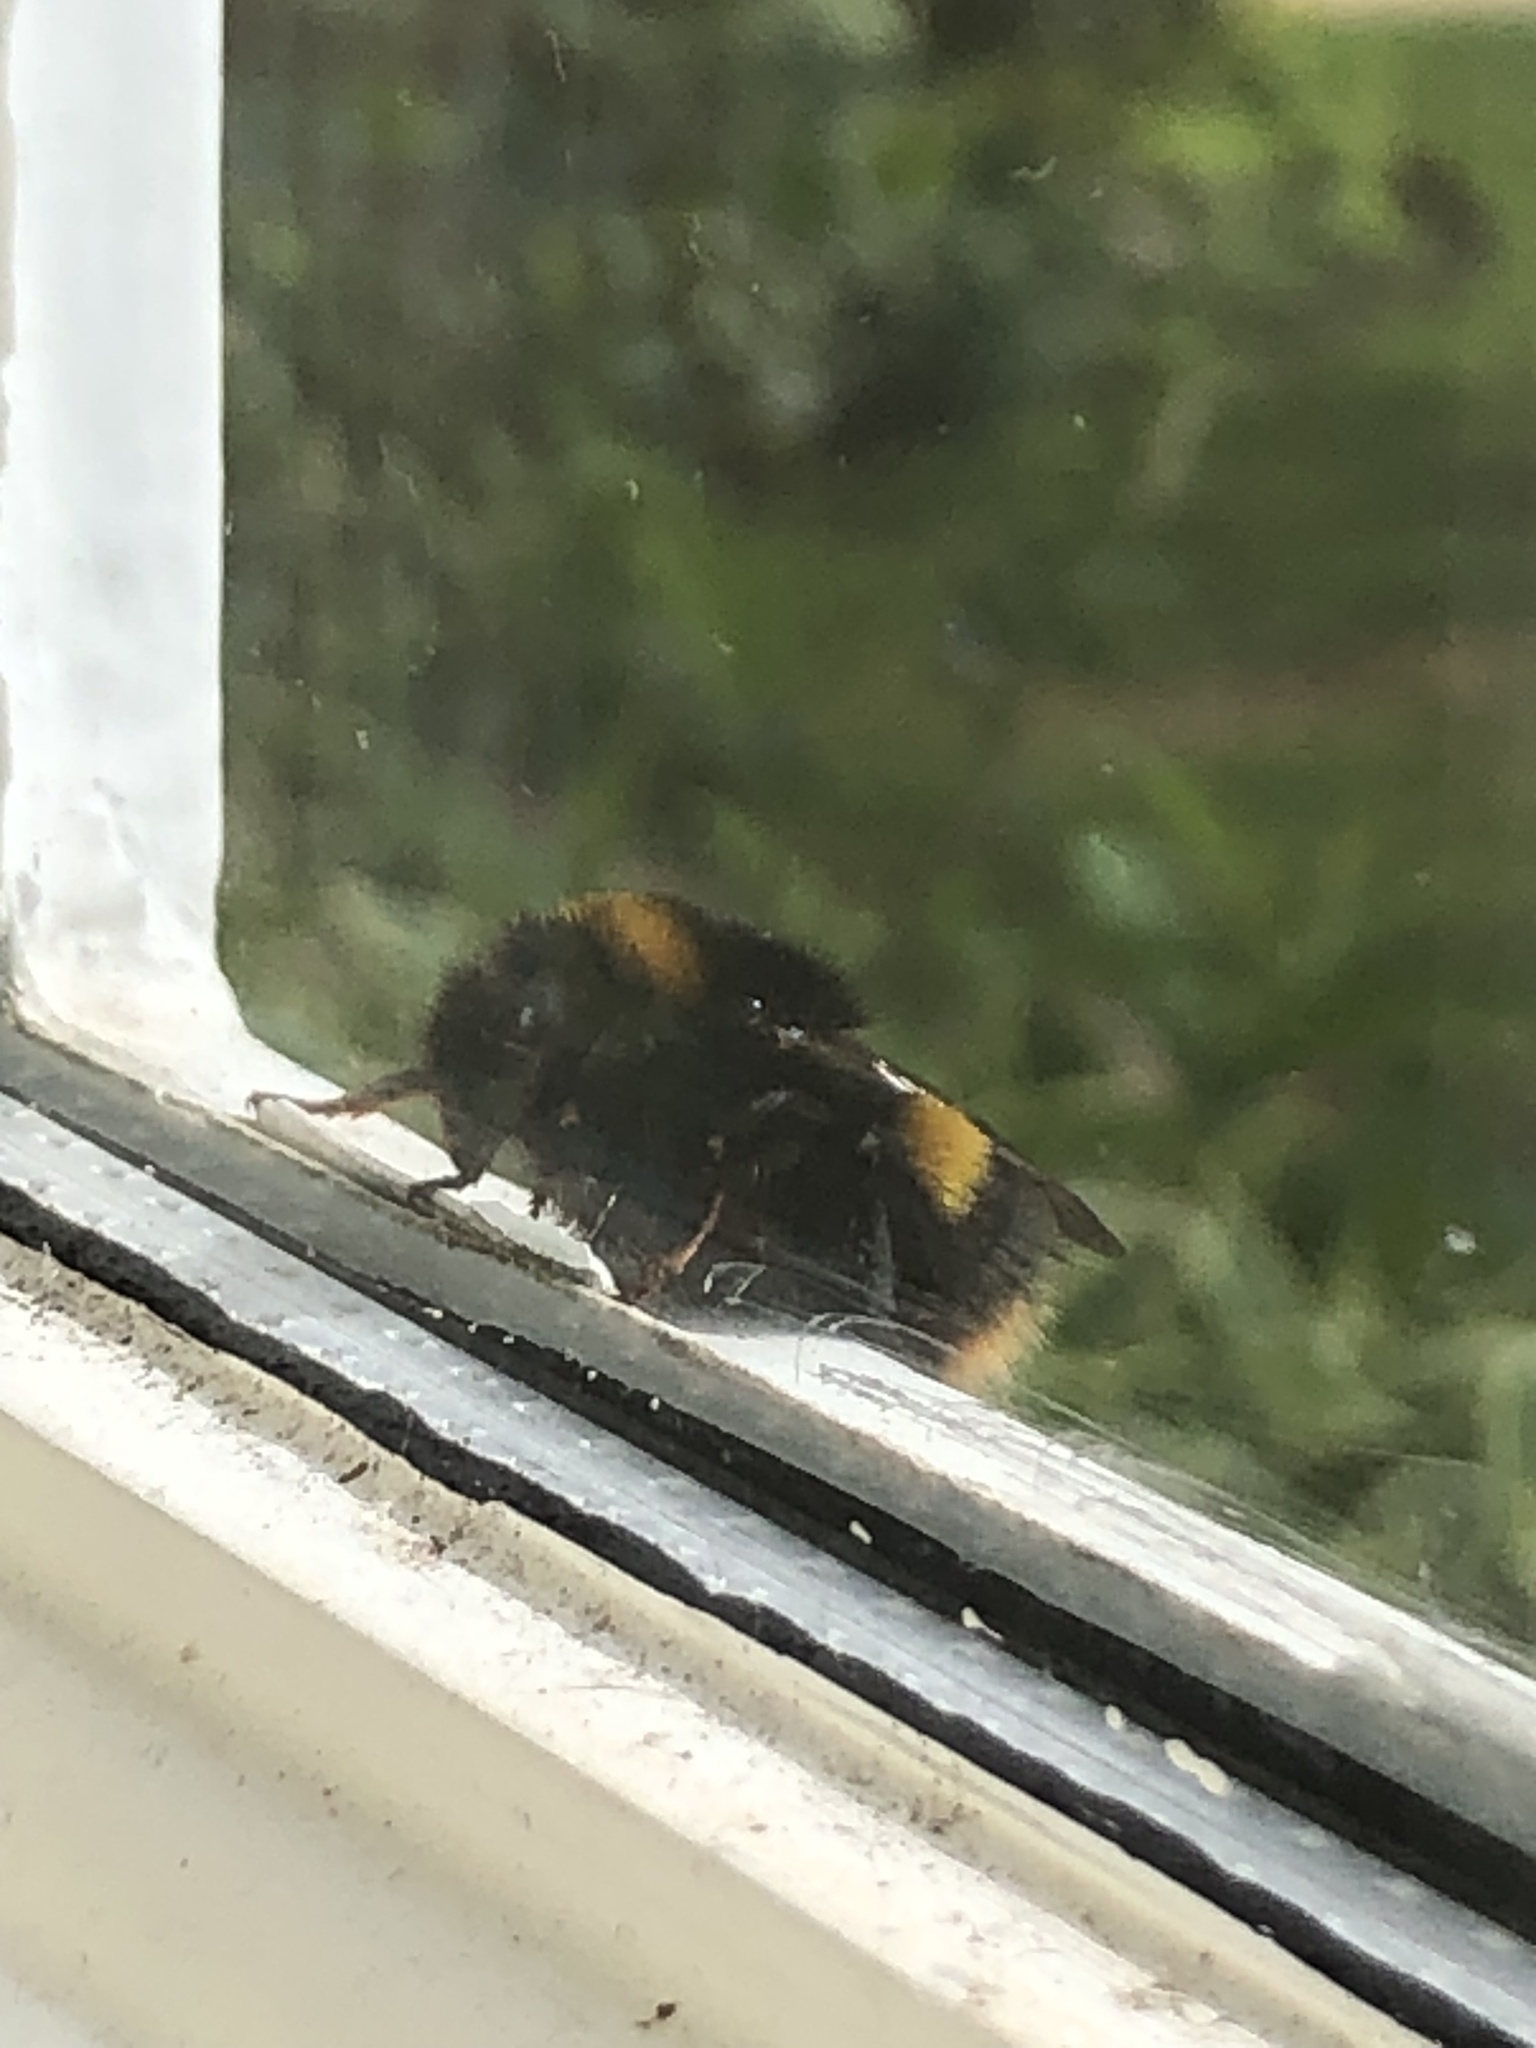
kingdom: Animalia
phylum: Arthropoda
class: Insecta
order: Hymenoptera
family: Apidae
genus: Bombus
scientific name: Bombus terrestris
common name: Buff-tailed bumblebee
